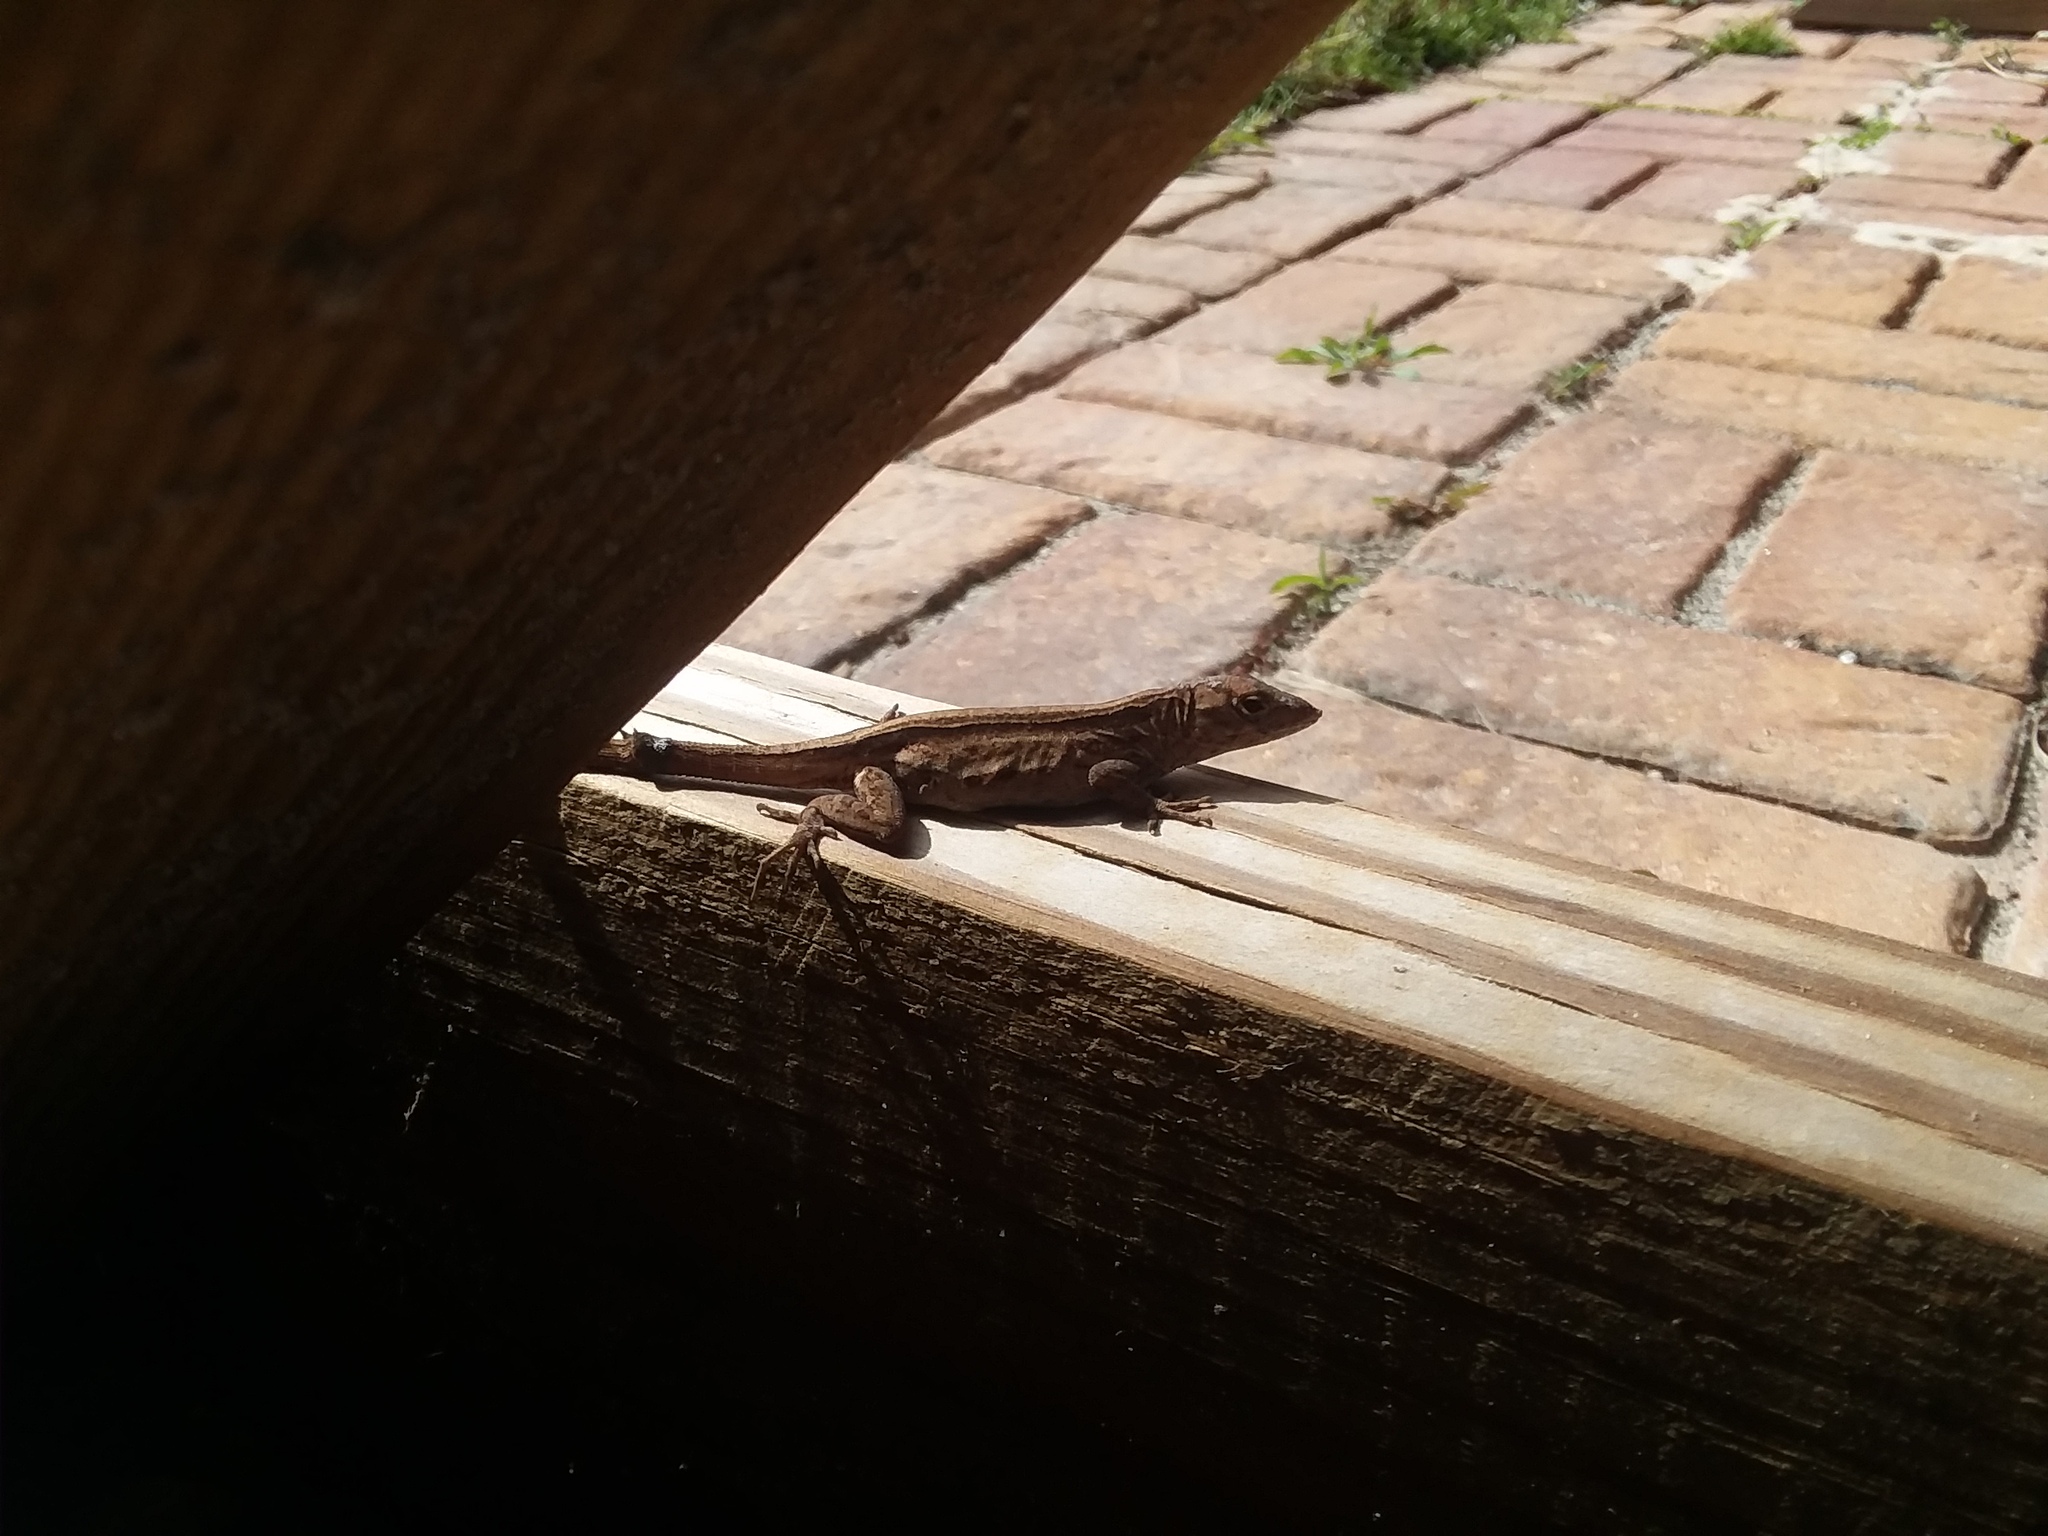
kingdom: Animalia
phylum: Chordata
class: Squamata
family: Dactyloidae
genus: Anolis
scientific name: Anolis sagrei
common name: Brown anole
